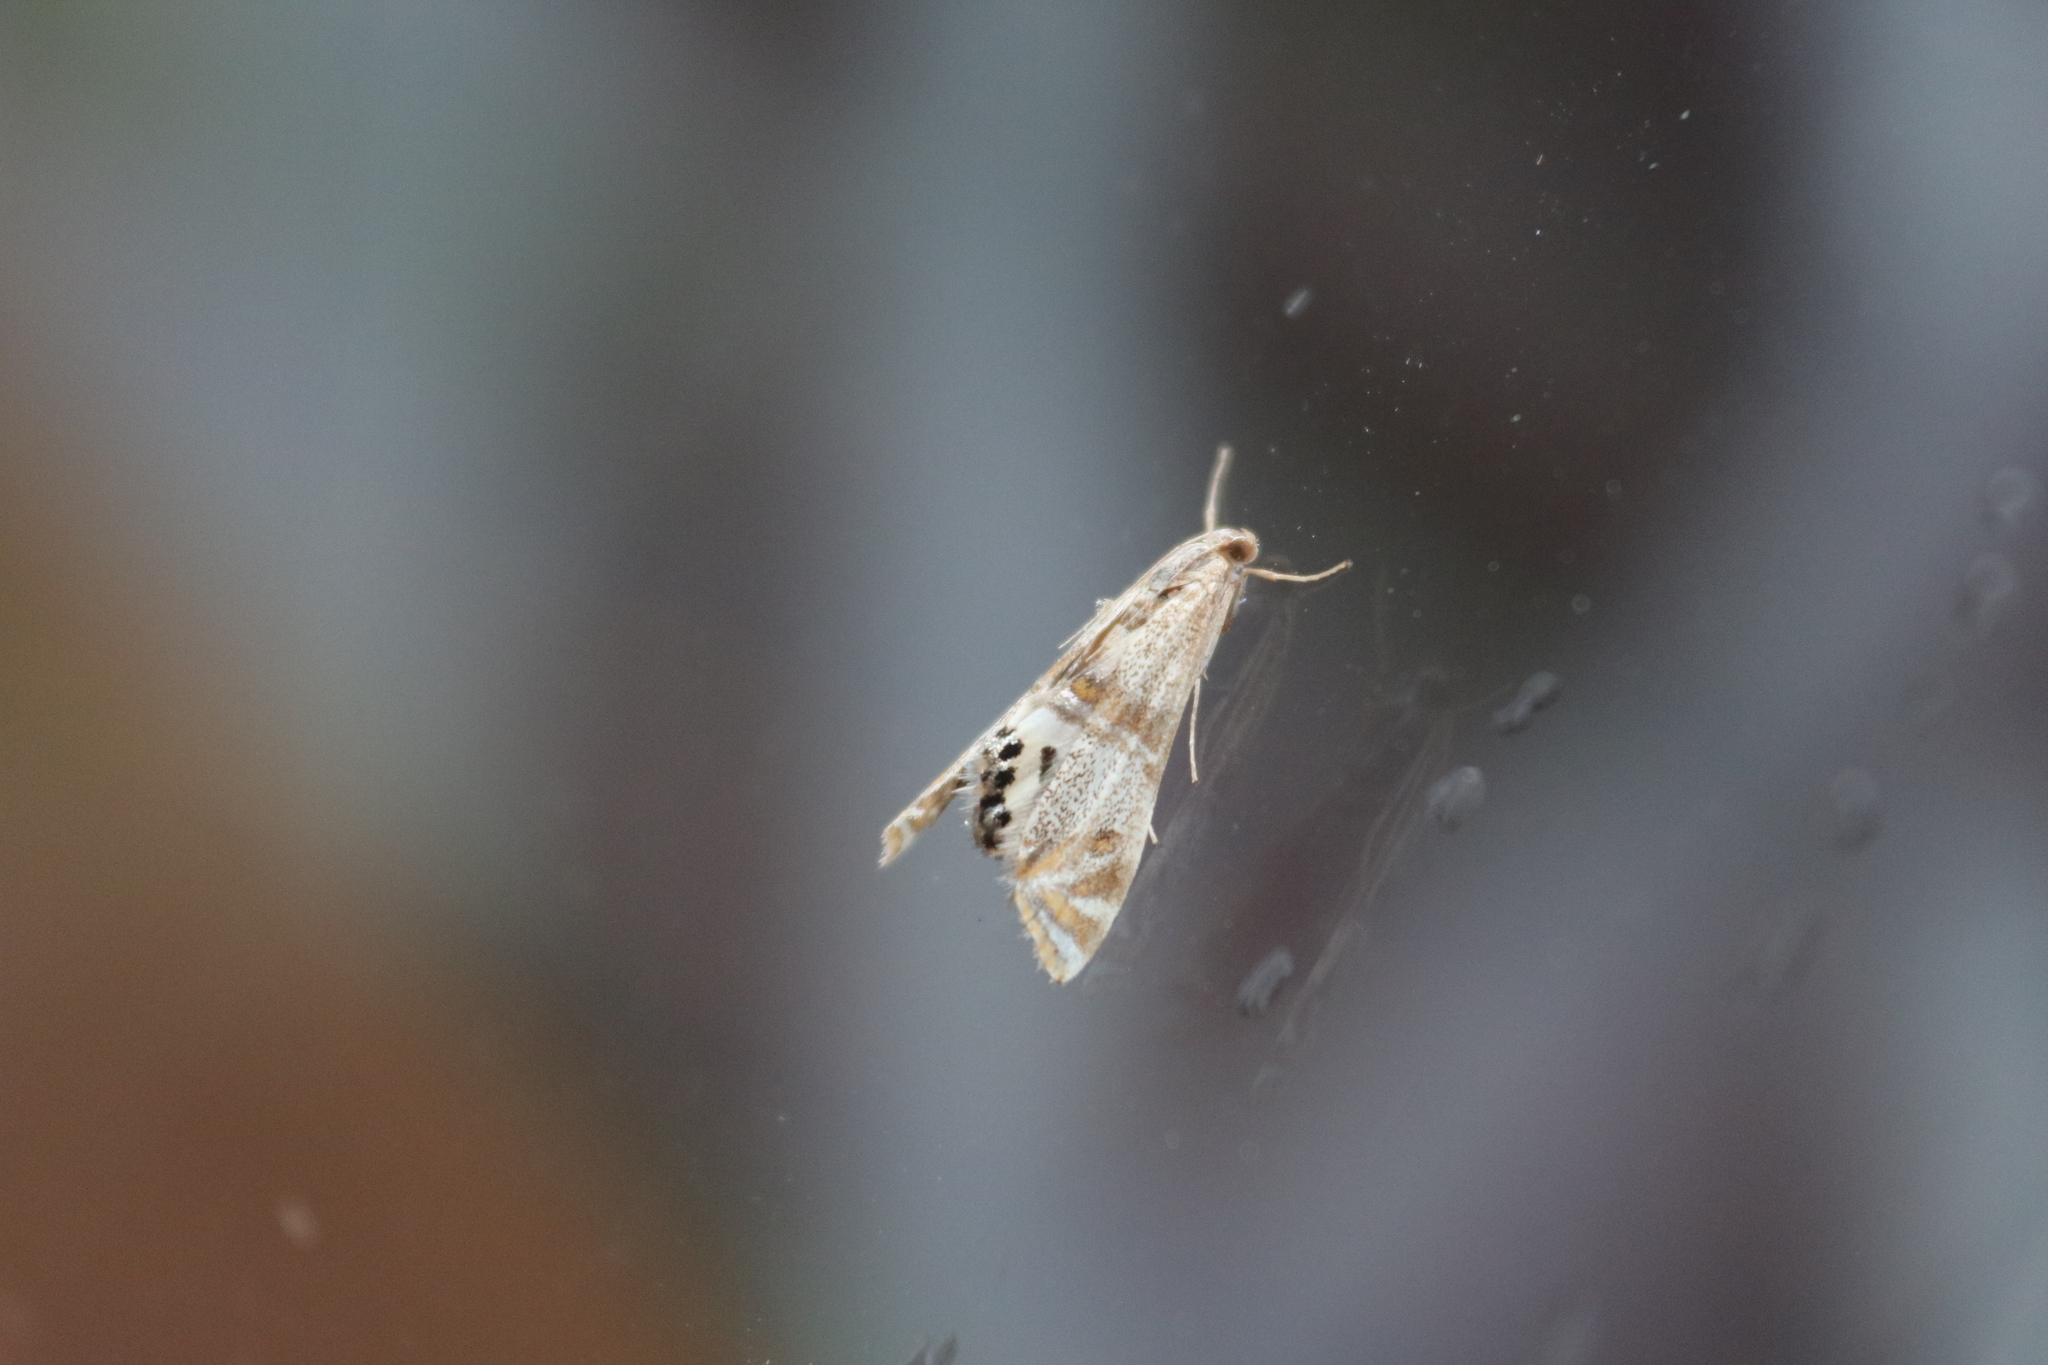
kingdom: Animalia
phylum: Arthropoda
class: Insecta
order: Lepidoptera
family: Crambidae
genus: Petrophila
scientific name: Petrophila bifascialis
